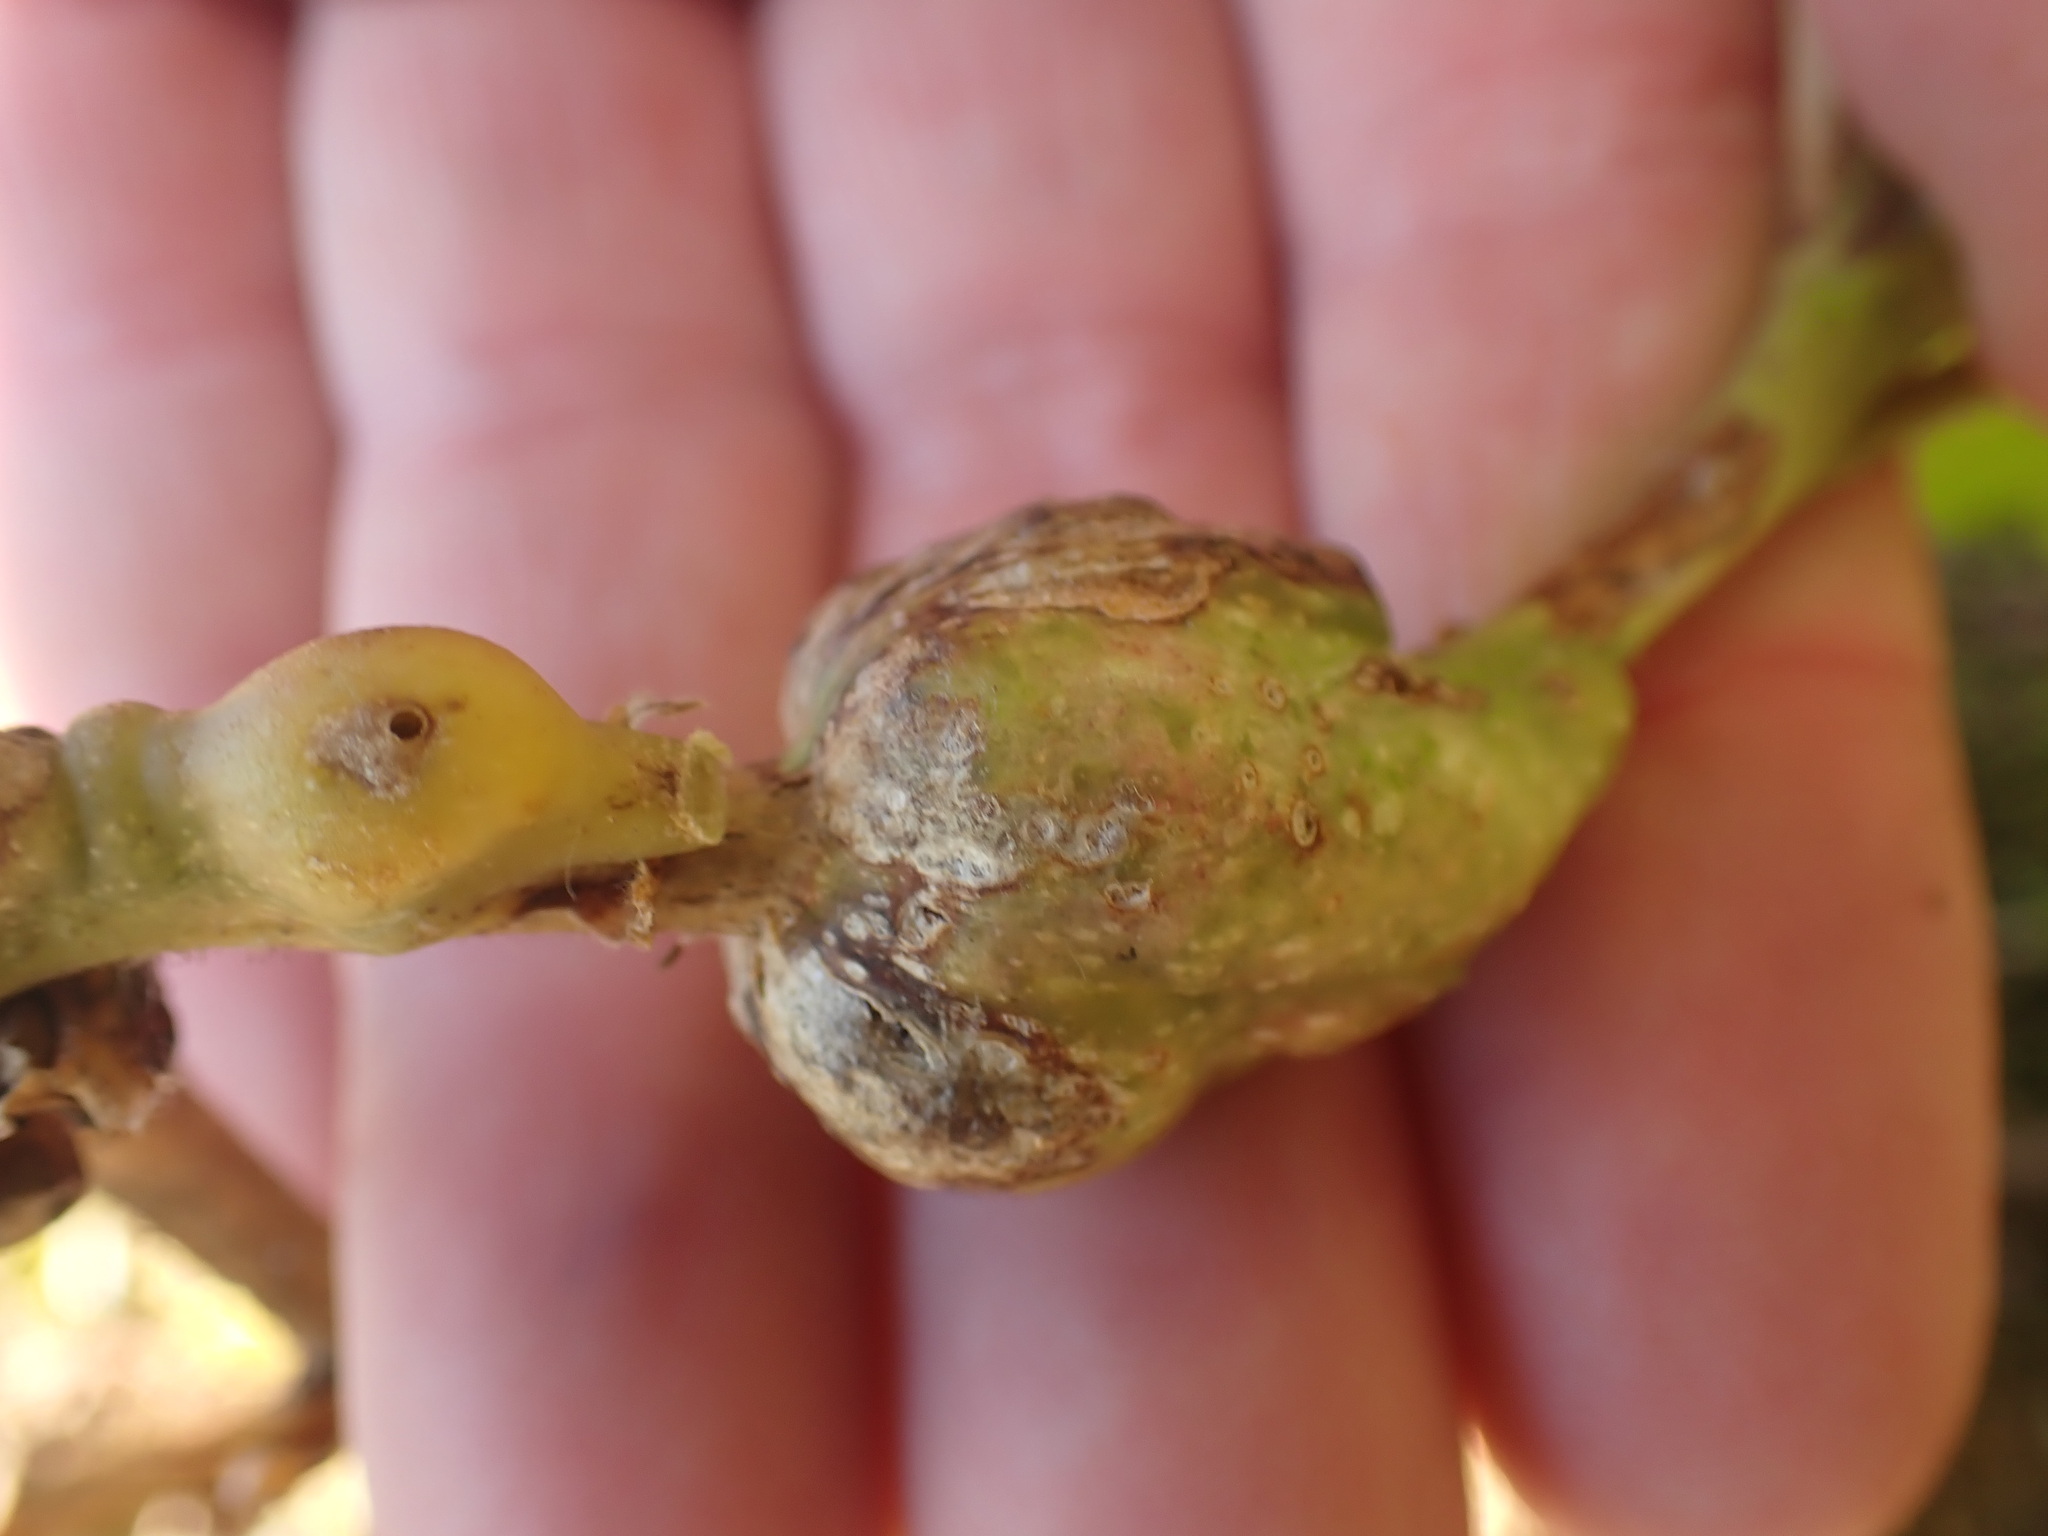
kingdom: Animalia
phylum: Arthropoda
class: Insecta
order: Hymenoptera
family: Cynipidae
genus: Diastrophus
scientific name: Diastrophus
